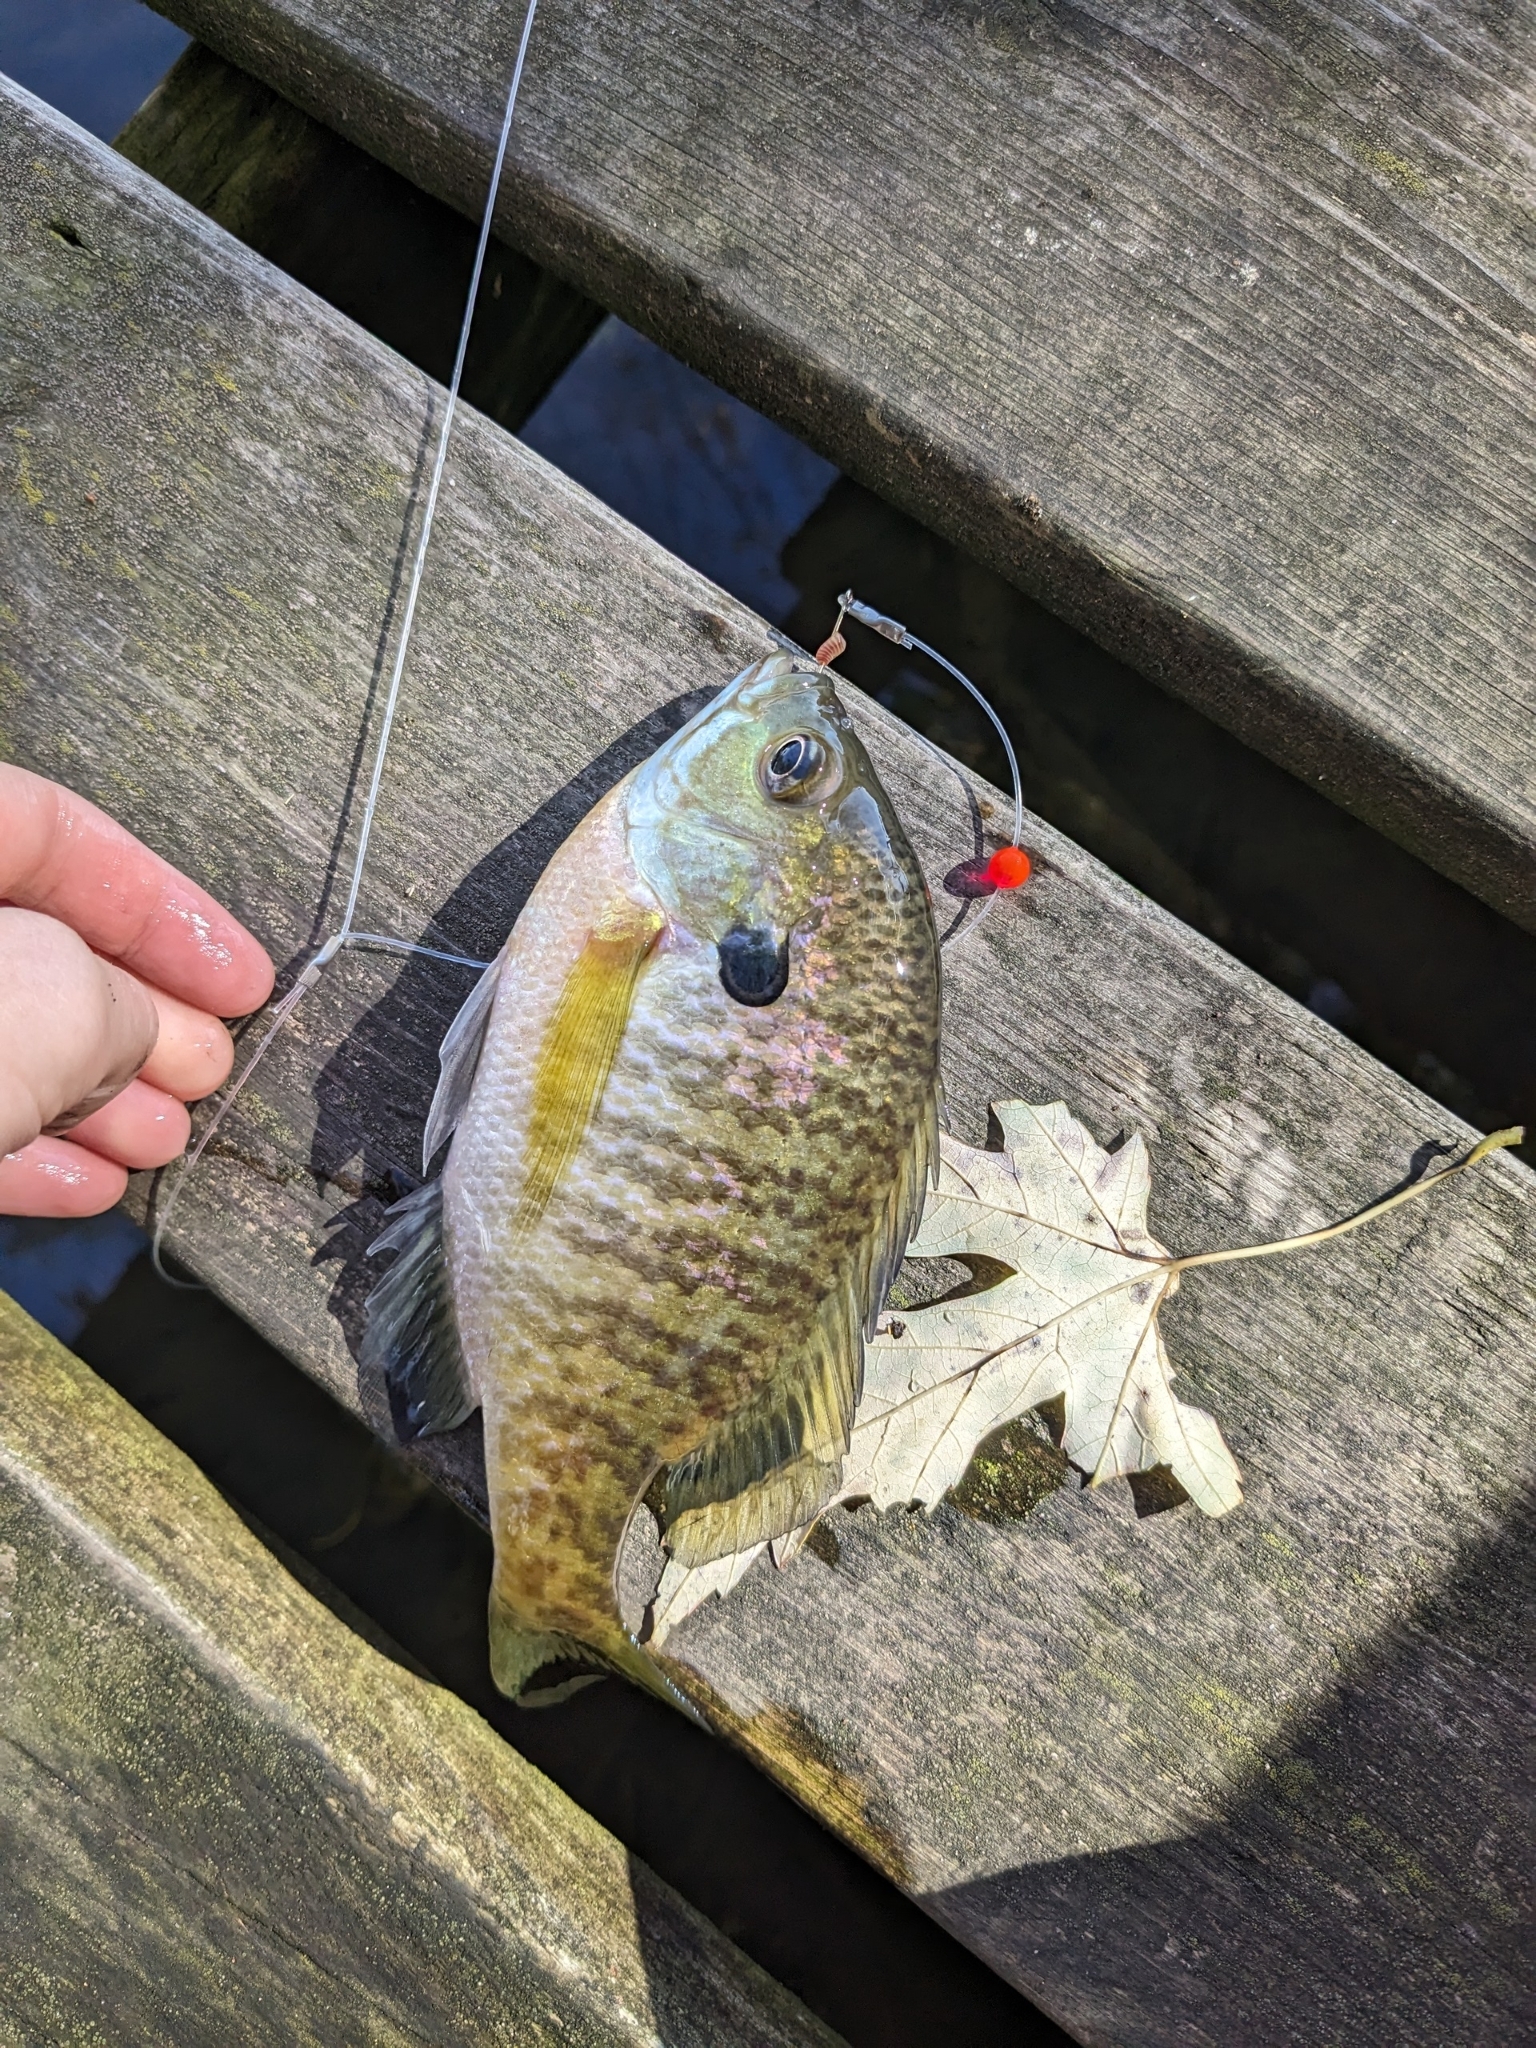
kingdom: Animalia
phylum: Chordata
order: Perciformes
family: Centrarchidae
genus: Lepomis
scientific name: Lepomis macrochirus
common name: Bluegill
